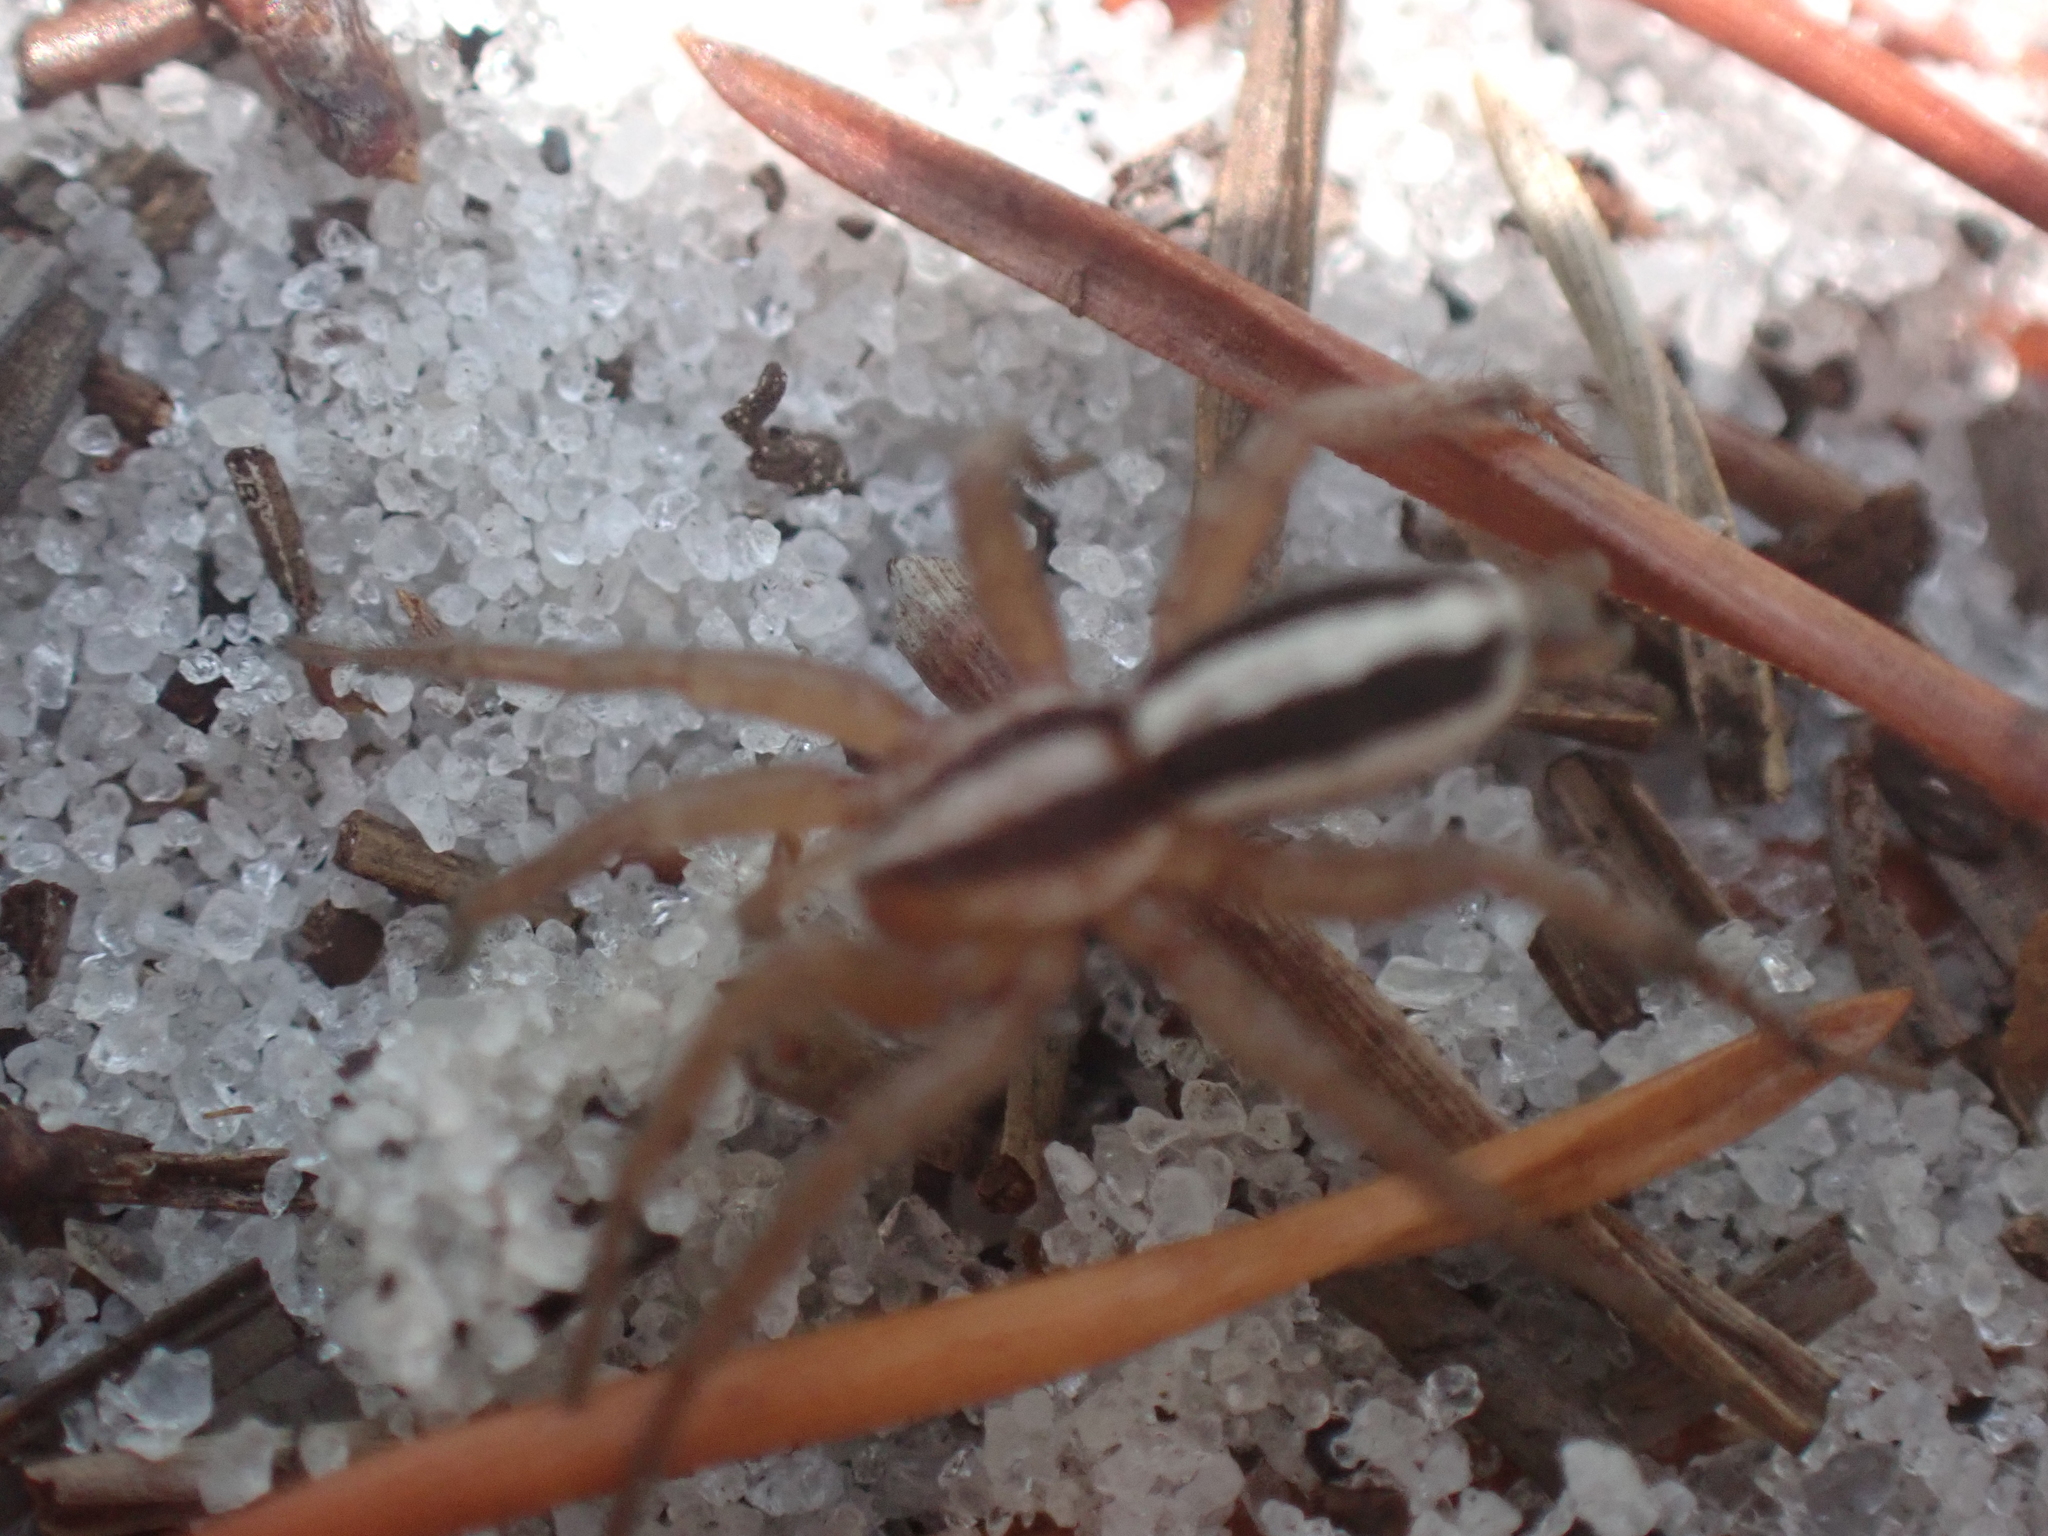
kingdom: Animalia
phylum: Arthropoda
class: Arachnida
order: Araneae
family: Gnaphosidae
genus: Cesonia
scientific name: Cesonia bilineata
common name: Two-lined stealthy ground spider
